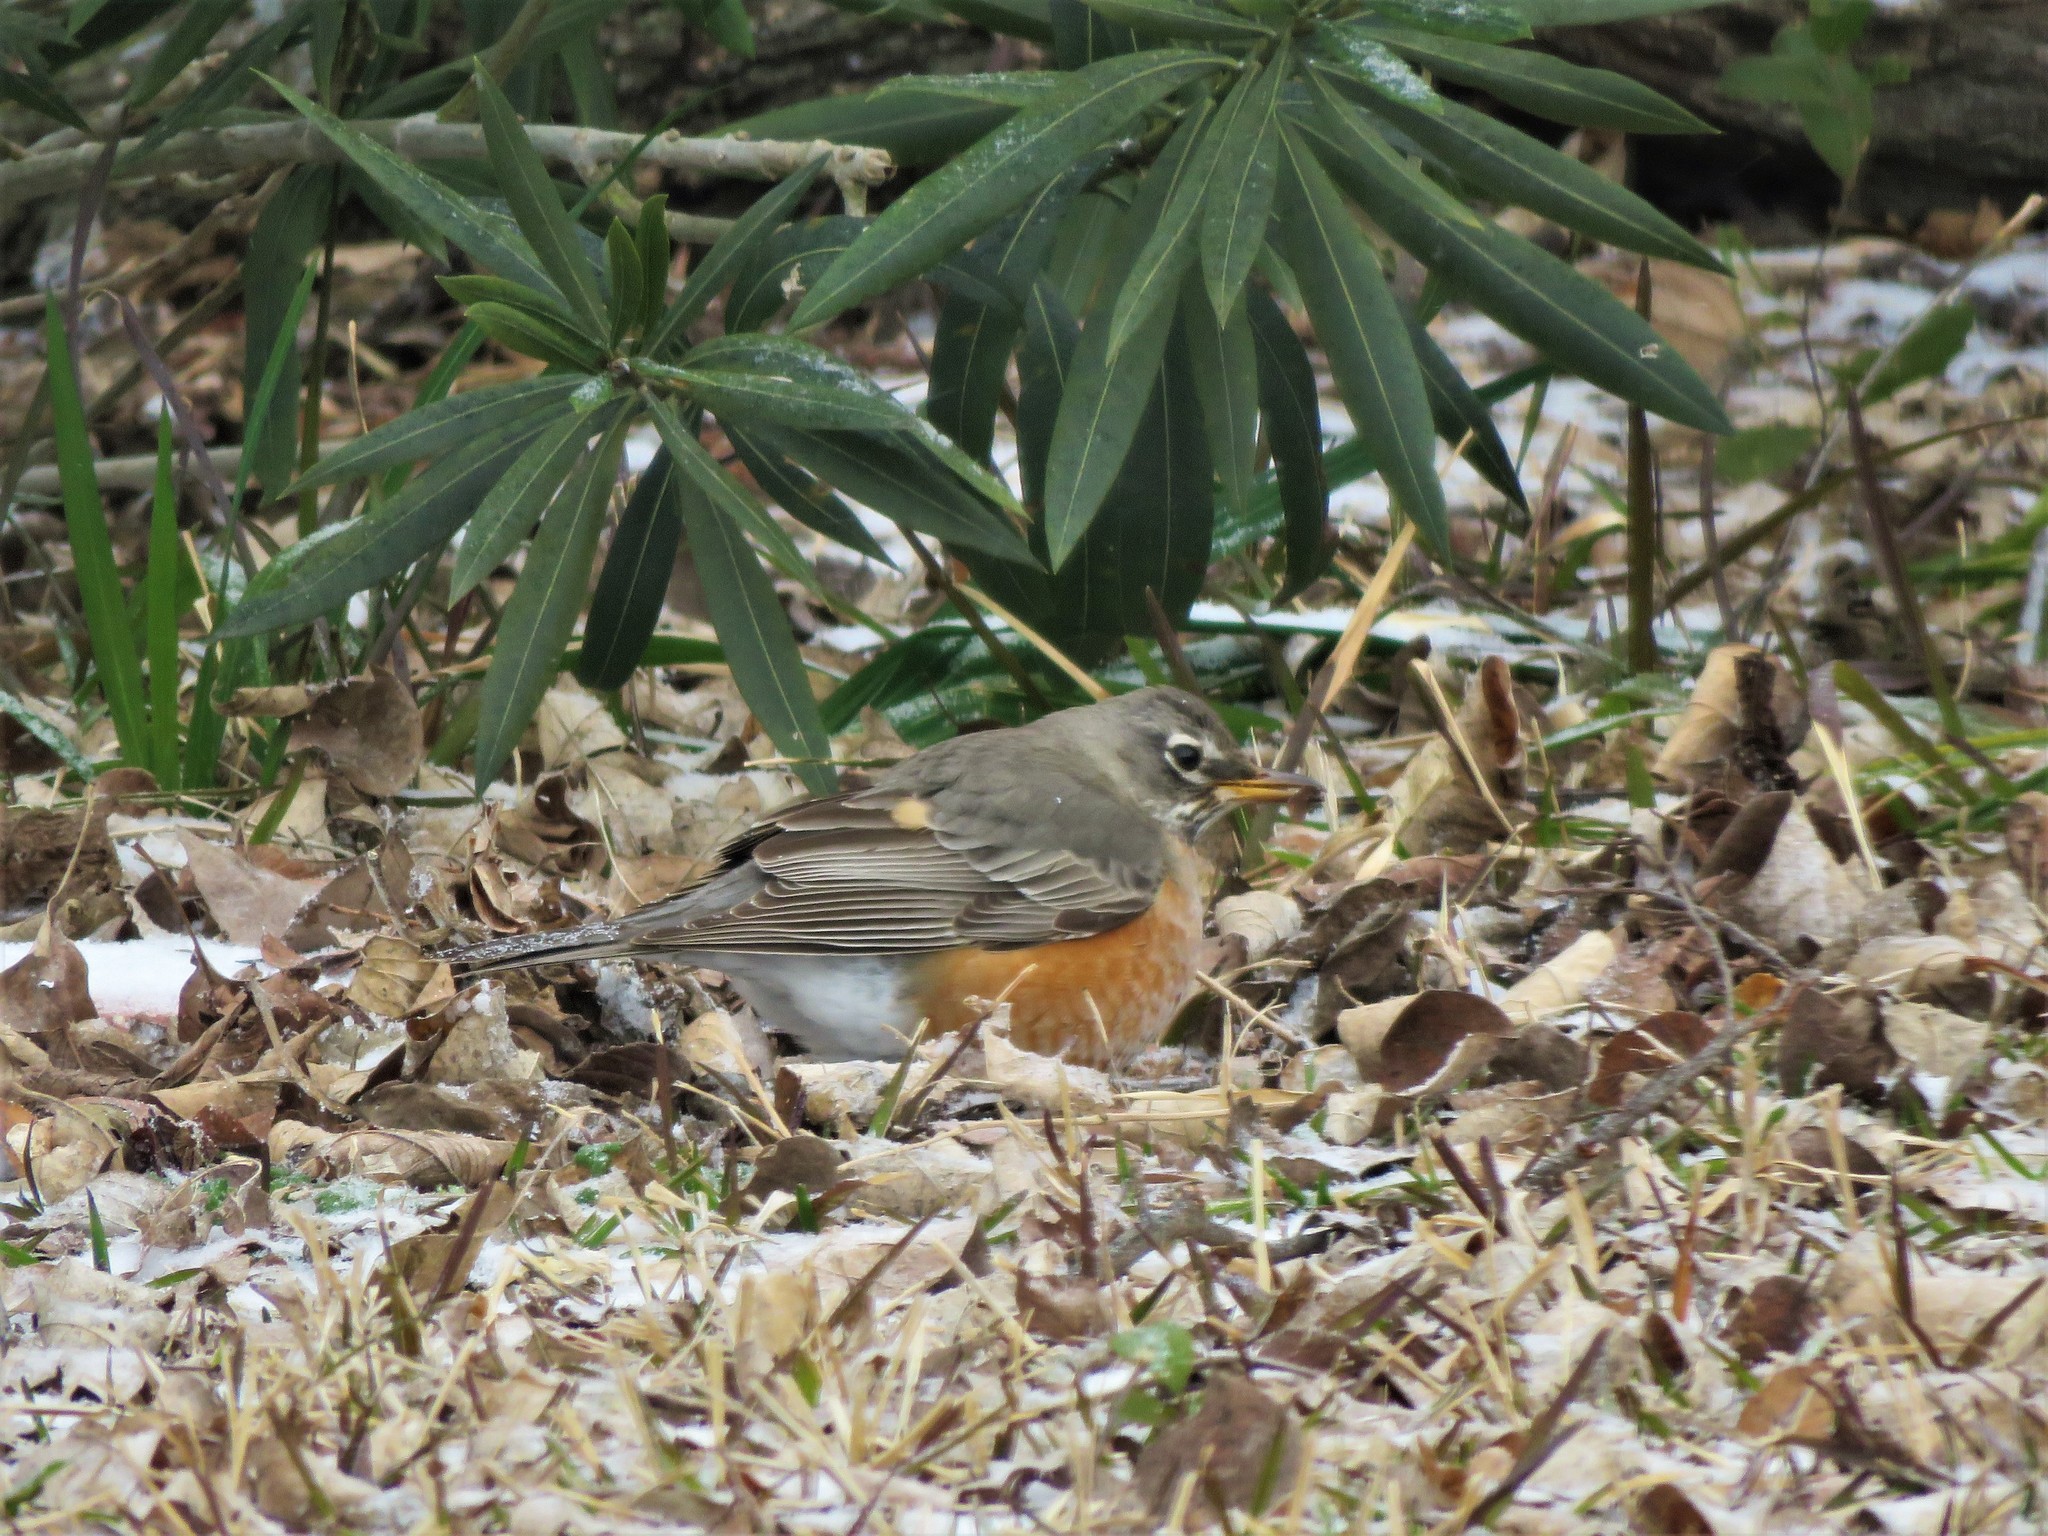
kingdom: Animalia
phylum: Chordata
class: Aves
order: Passeriformes
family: Turdidae
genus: Turdus
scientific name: Turdus migratorius
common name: American robin
